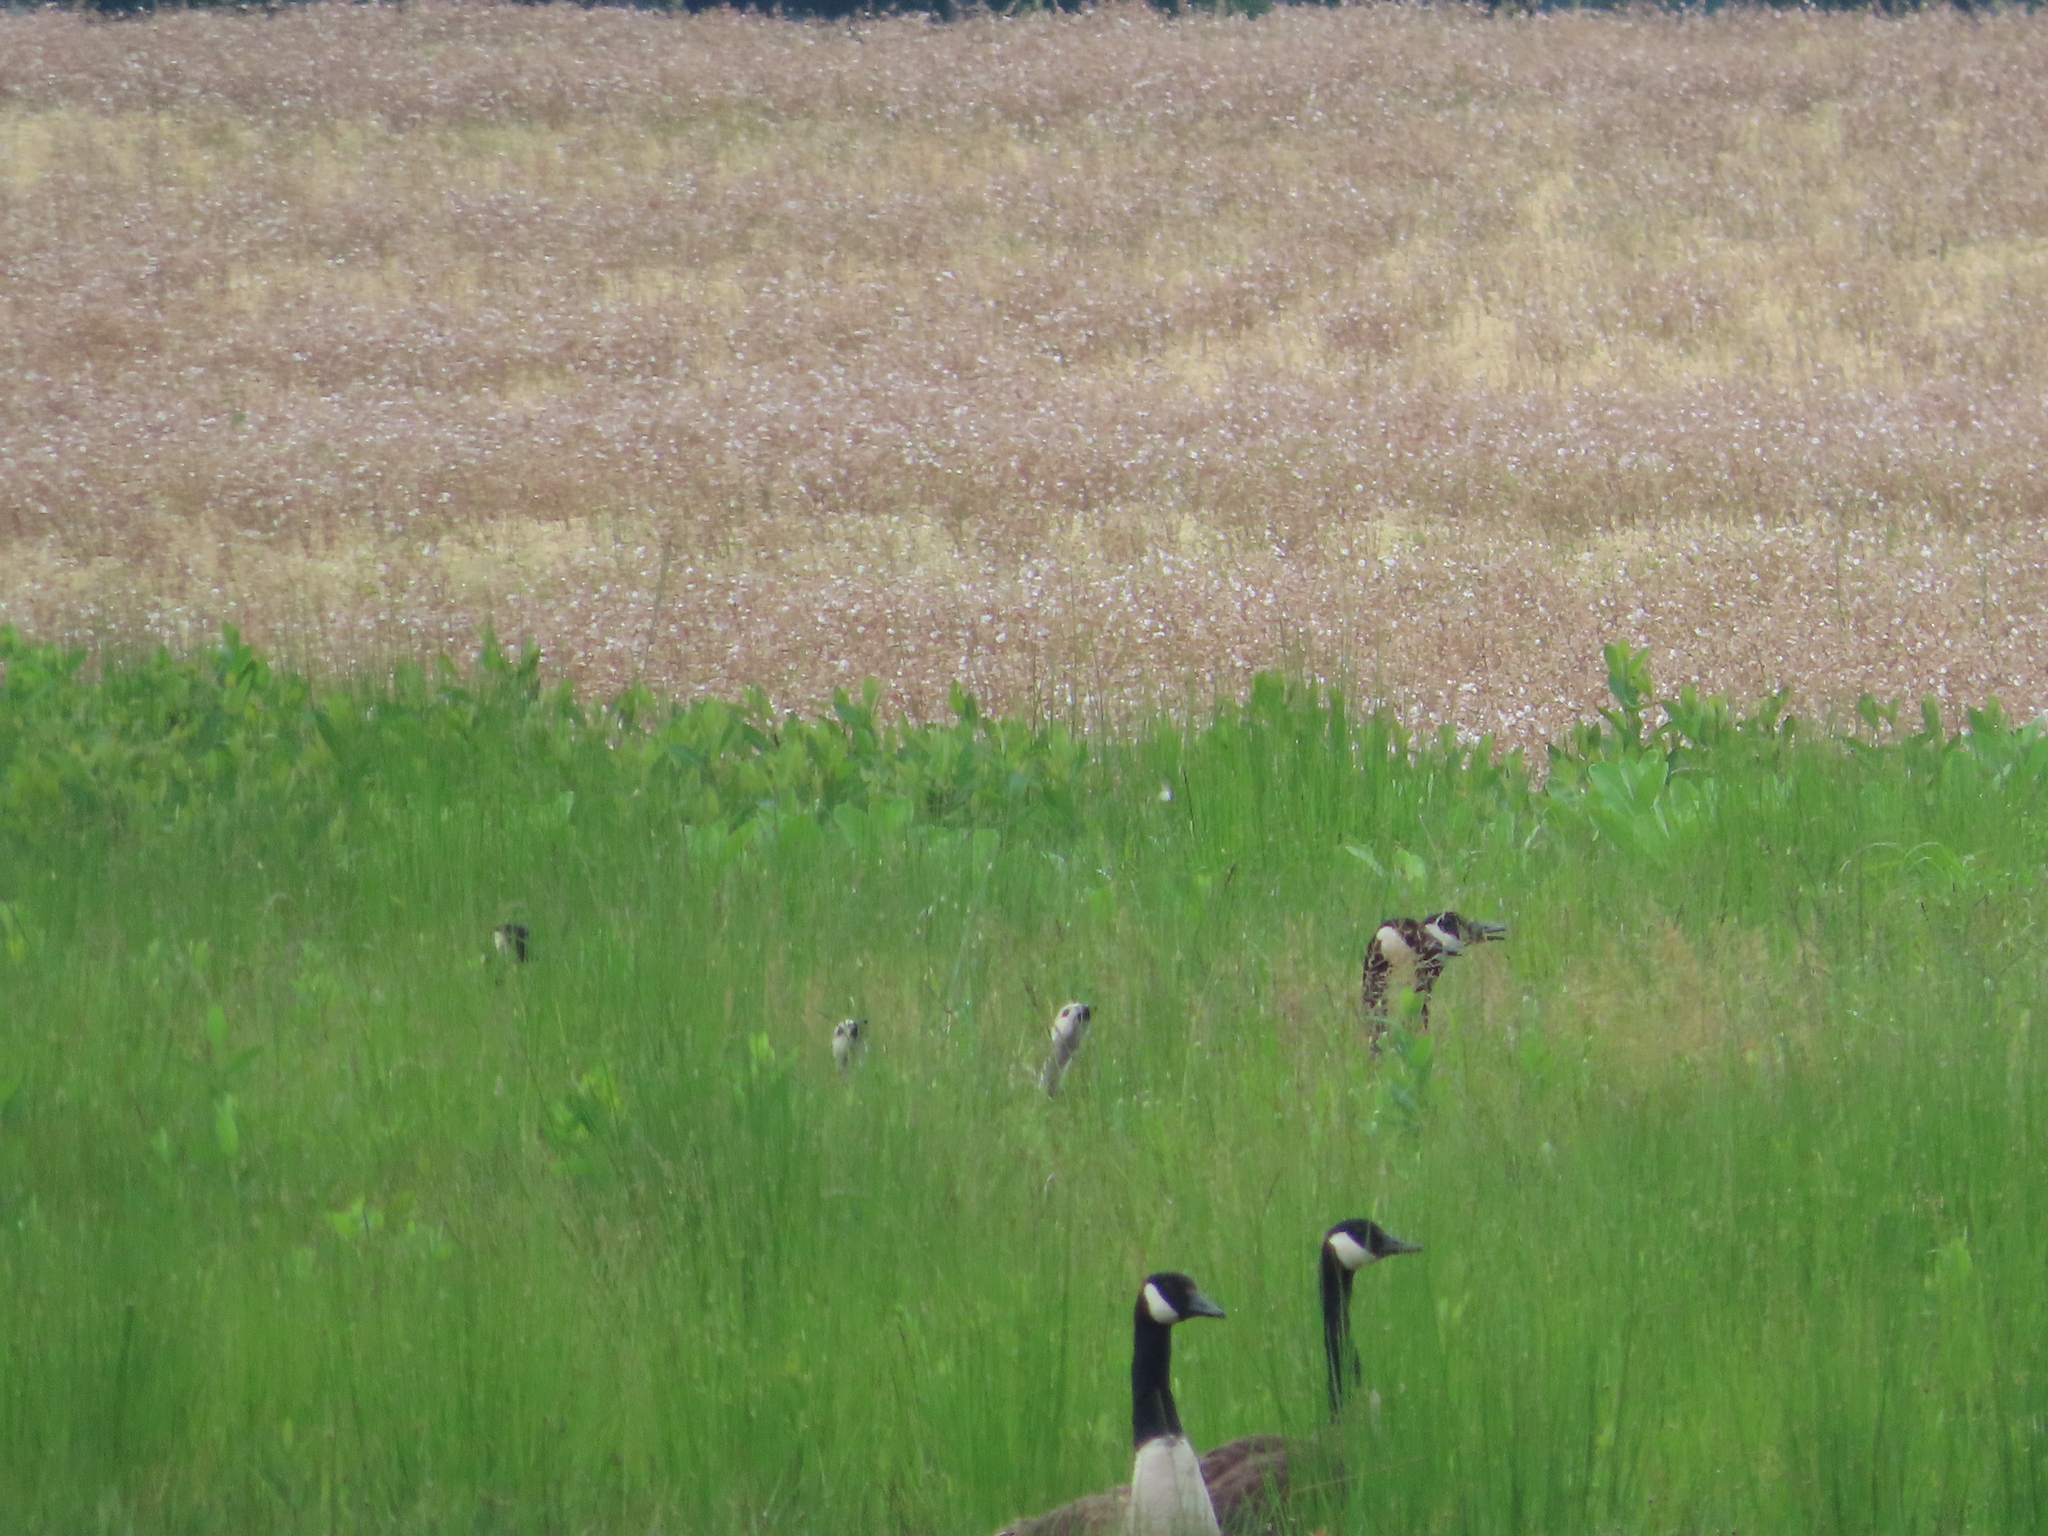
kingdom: Animalia
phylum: Chordata
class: Aves
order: Anseriformes
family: Anatidae
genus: Branta
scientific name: Branta canadensis
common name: Canada goose
